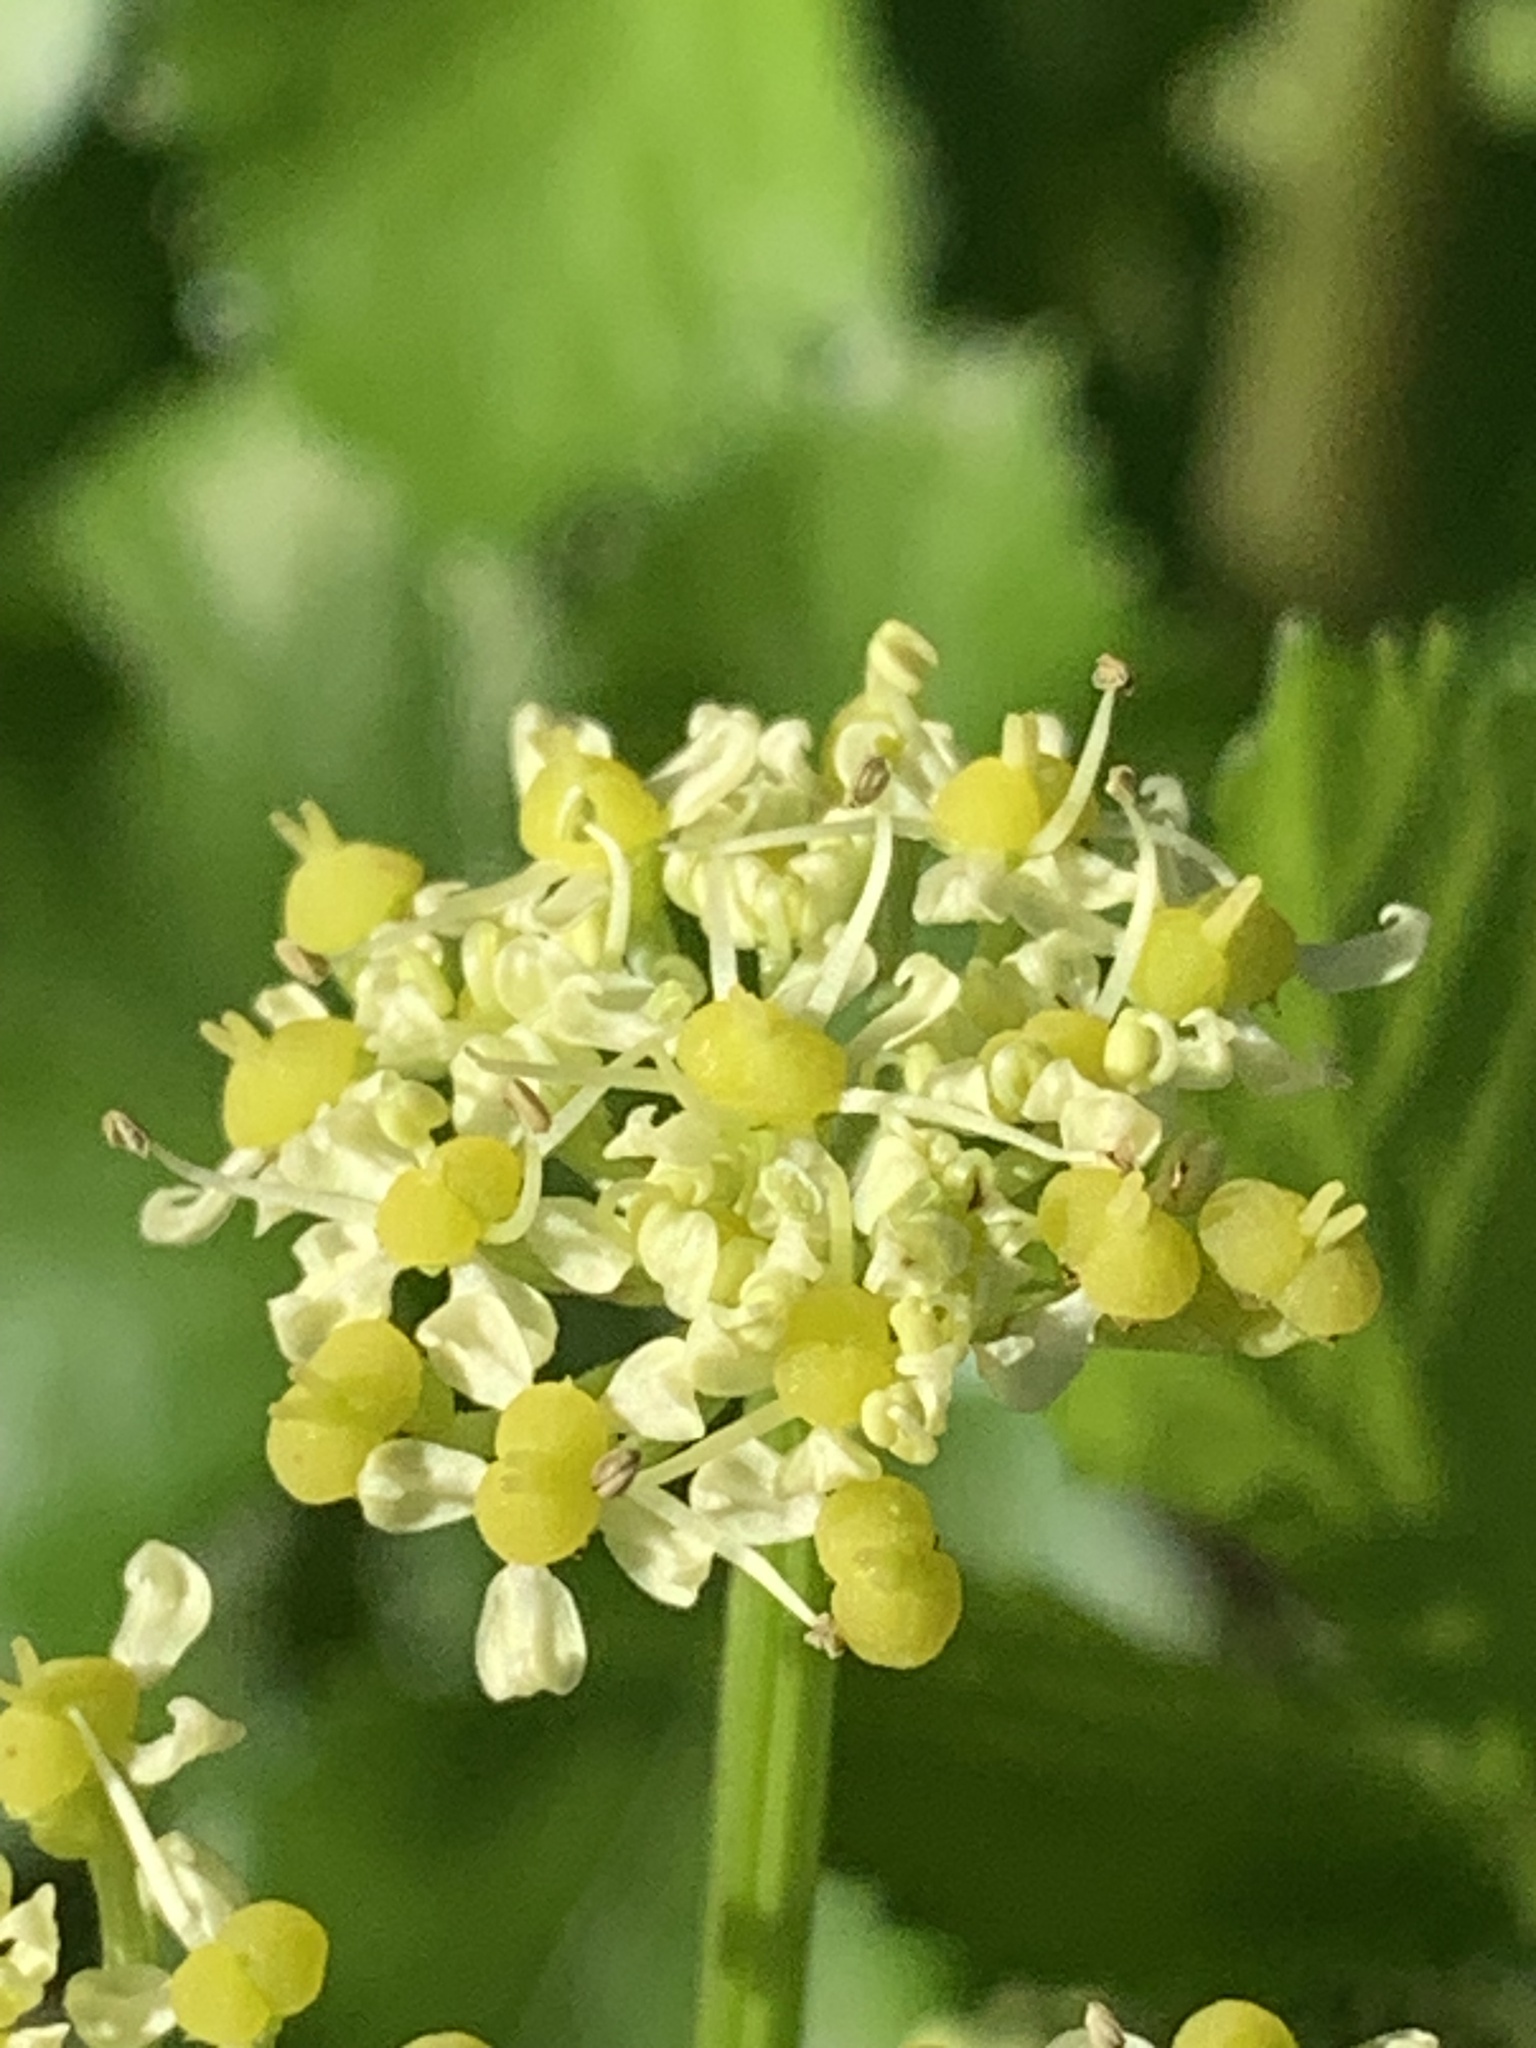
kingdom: Plantae
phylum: Tracheophyta
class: Magnoliopsida
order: Apiales
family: Apiaceae
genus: Smyrnium
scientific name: Smyrnium olusatrum
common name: Alexanders
